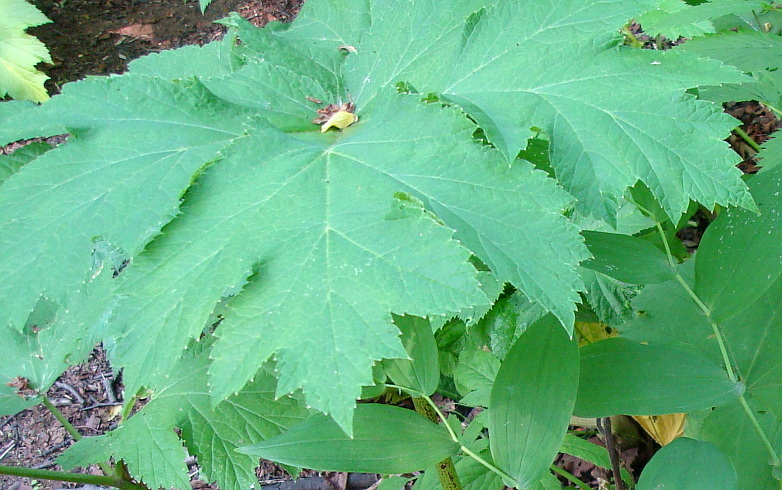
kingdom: Plantae
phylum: Tracheophyta
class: Magnoliopsida
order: Apiales
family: Apiaceae
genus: Heracleum
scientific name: Heracleum maximum
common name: American cow parsnip
